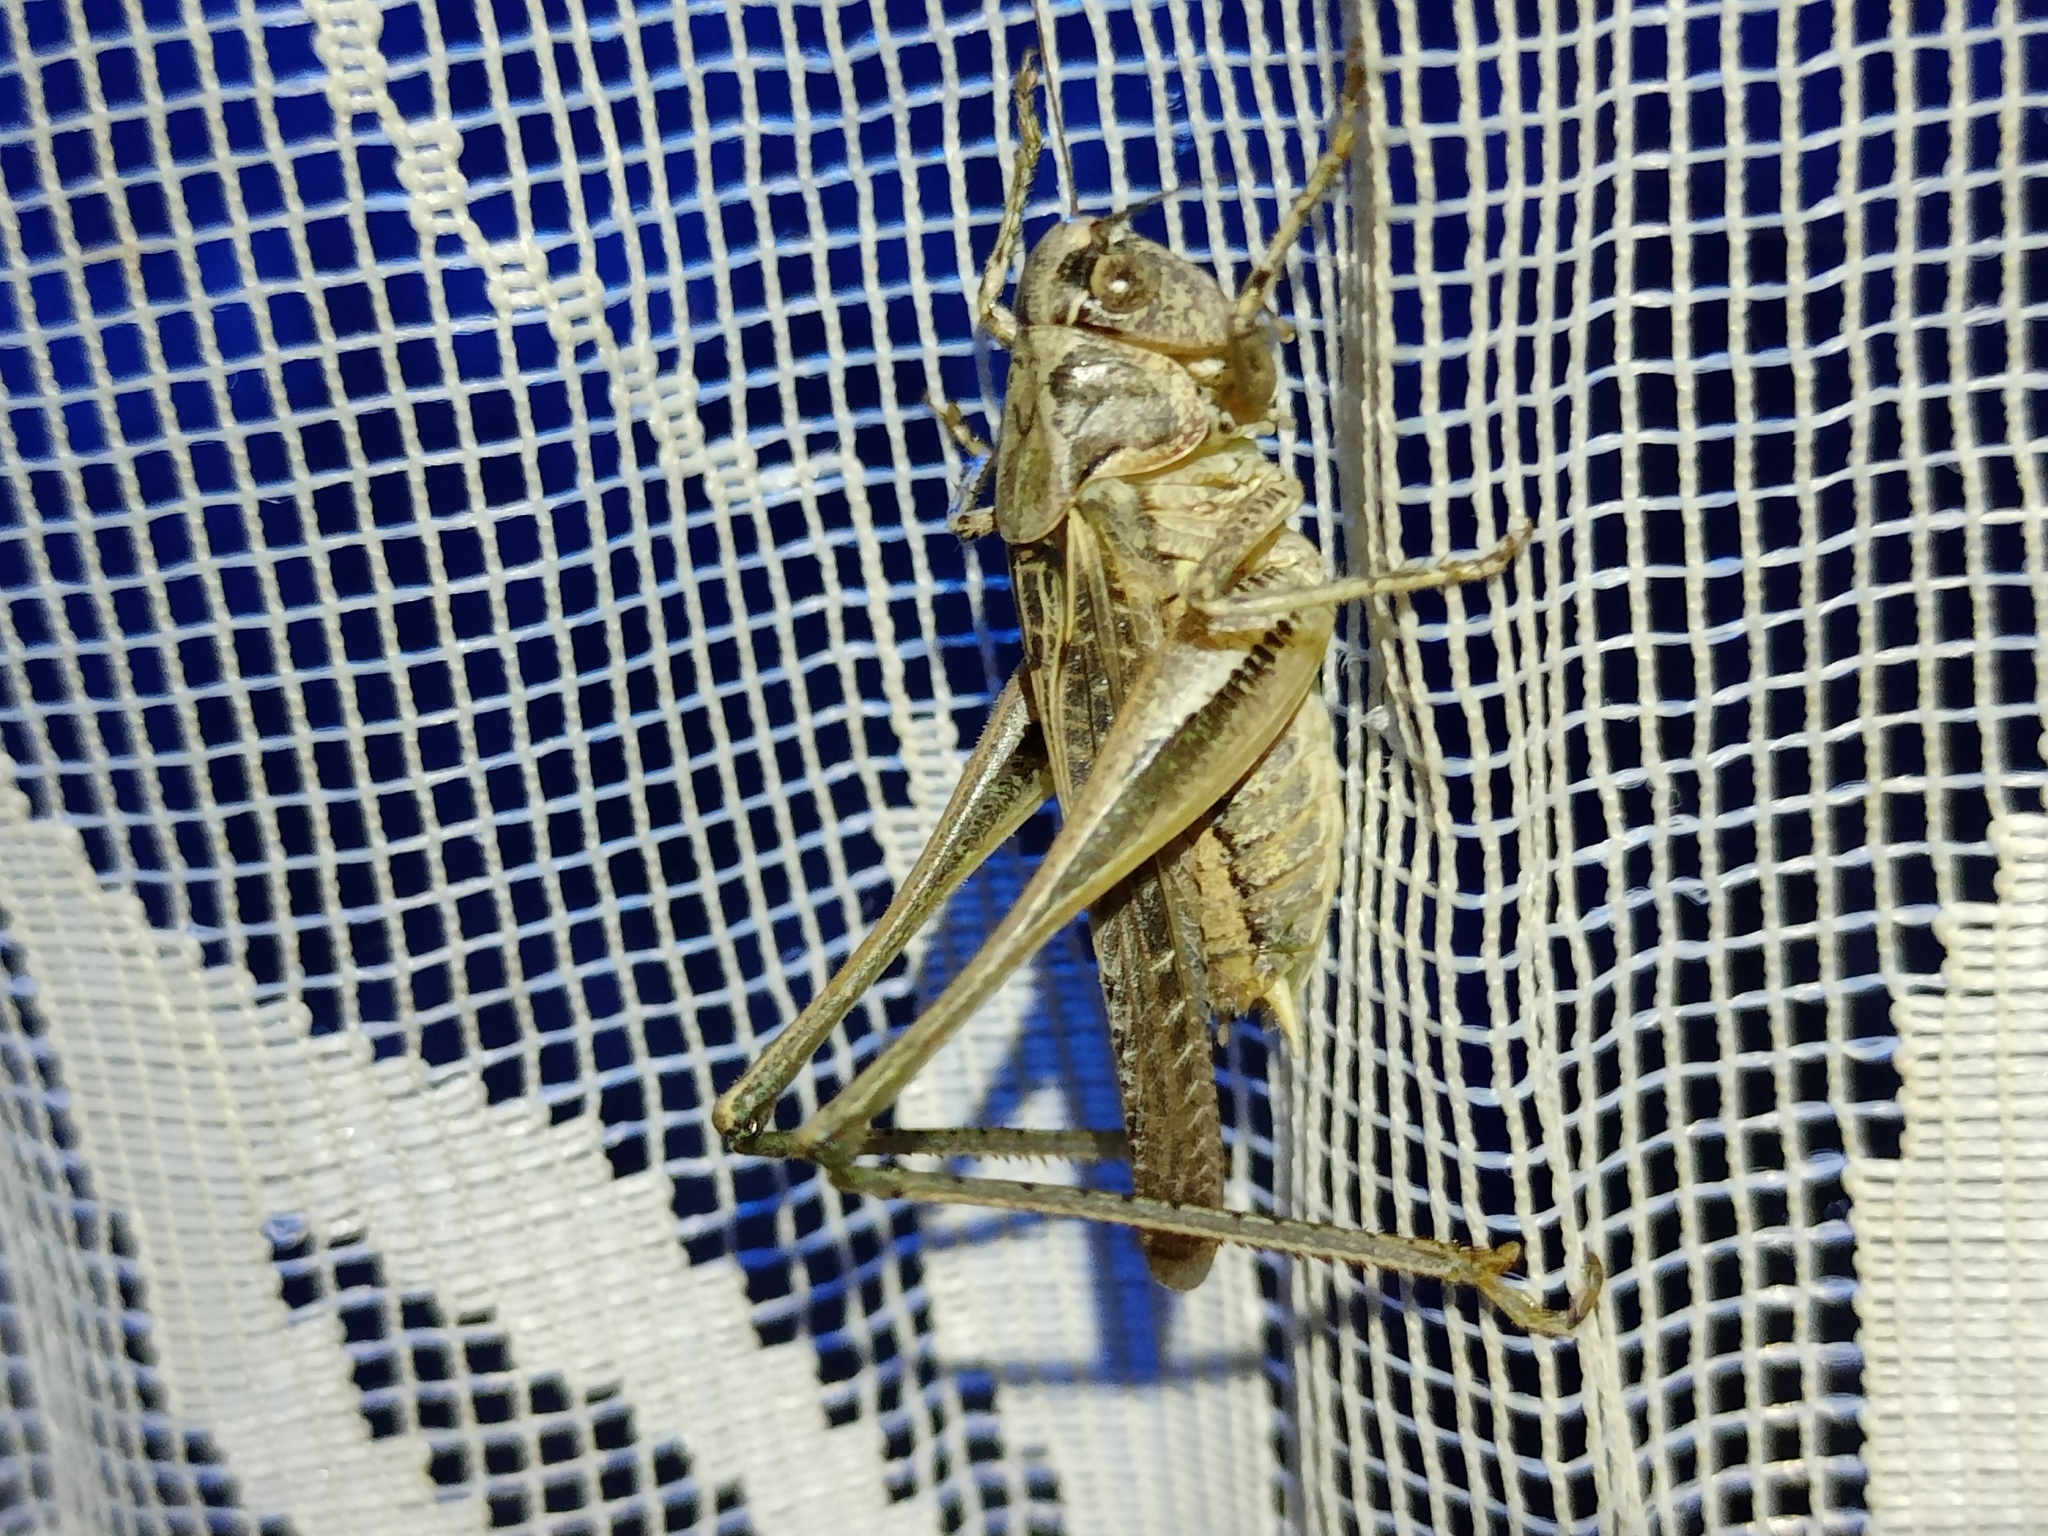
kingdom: Animalia
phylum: Arthropoda
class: Insecta
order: Orthoptera
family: Tettigoniidae
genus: Platycleis
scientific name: Platycleis albopunctata
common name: Grey bush-cricket
